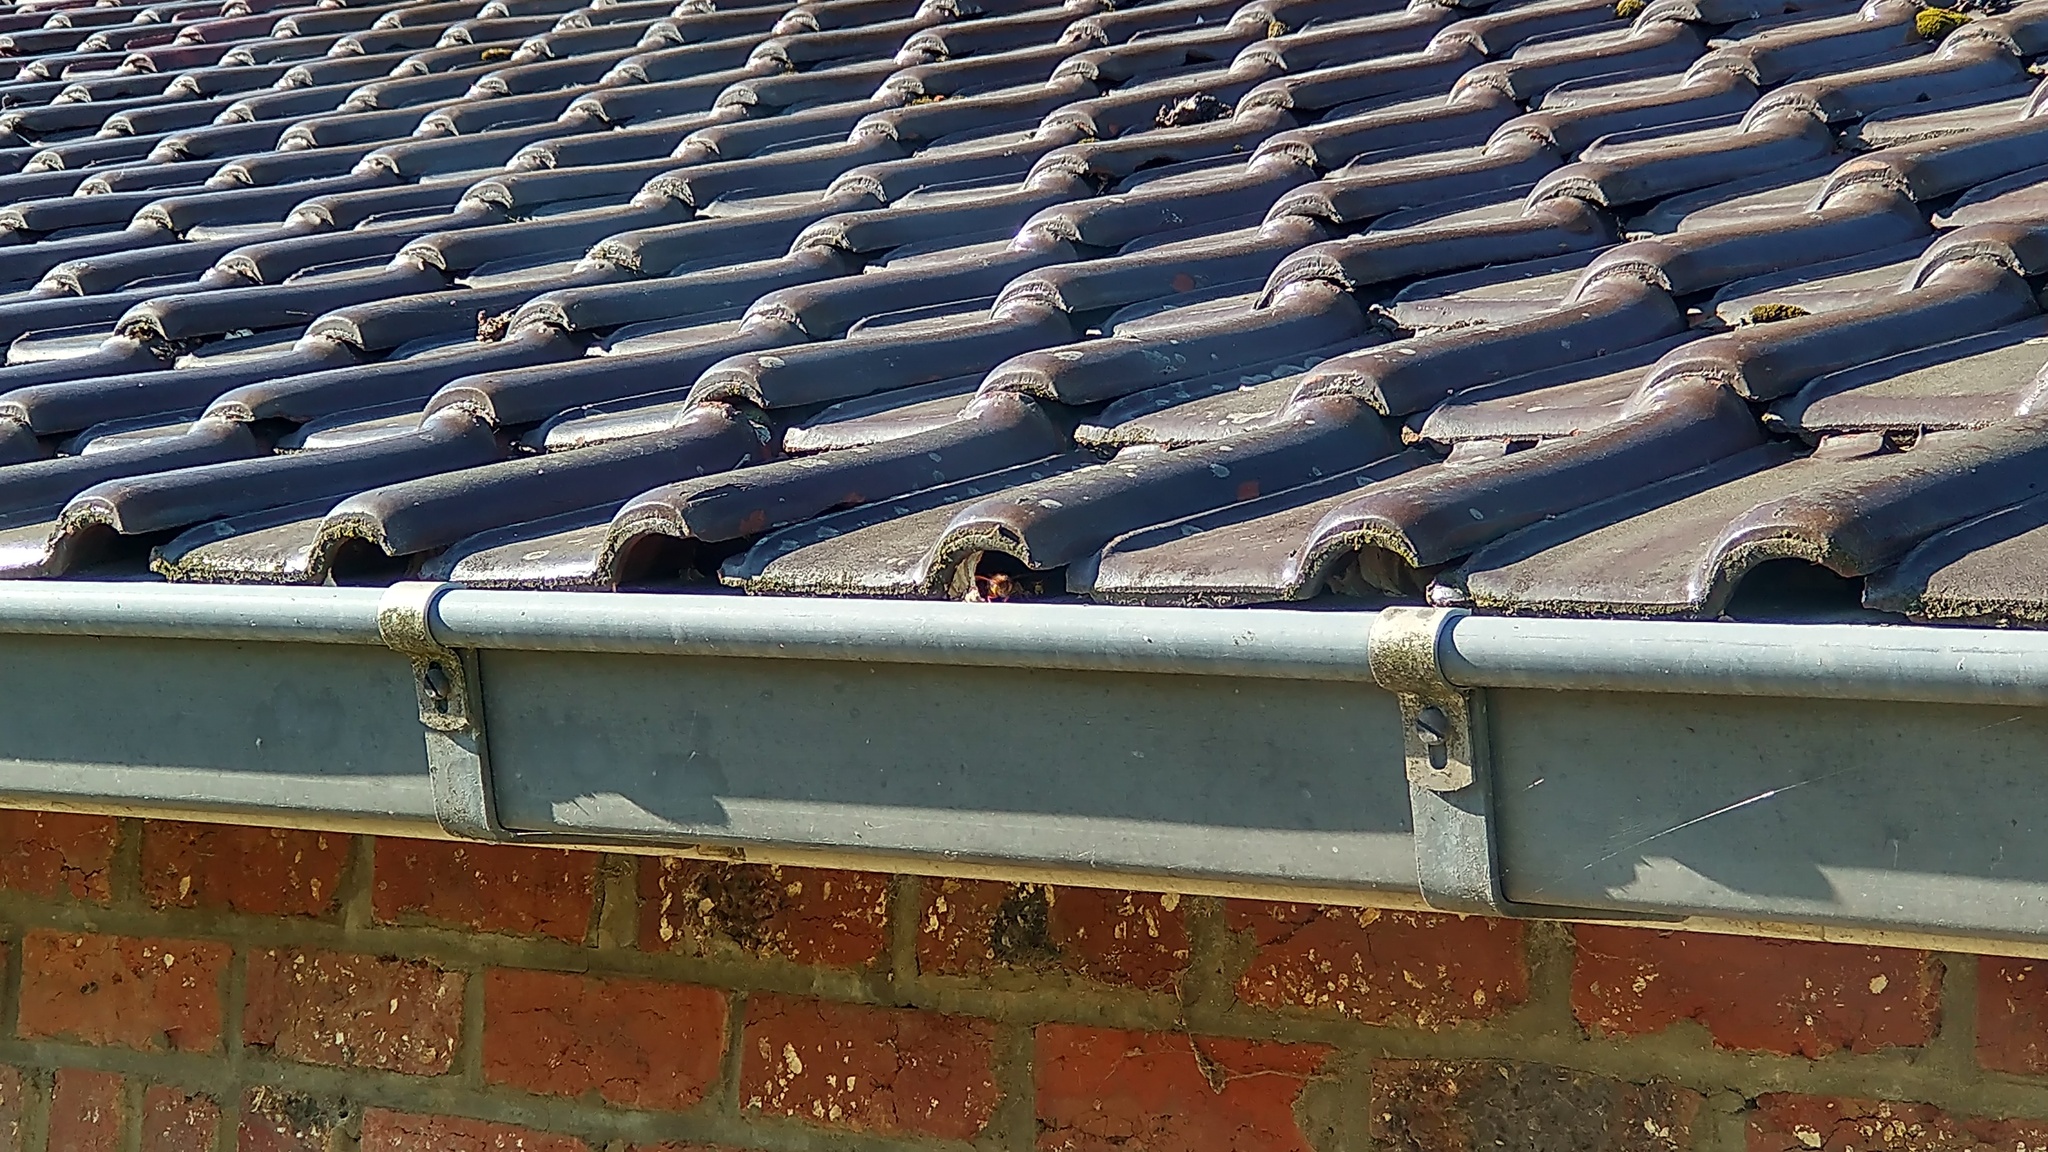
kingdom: Animalia
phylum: Arthropoda
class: Insecta
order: Hymenoptera
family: Vespidae
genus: Vespa
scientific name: Vespa crabro
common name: Hornet
